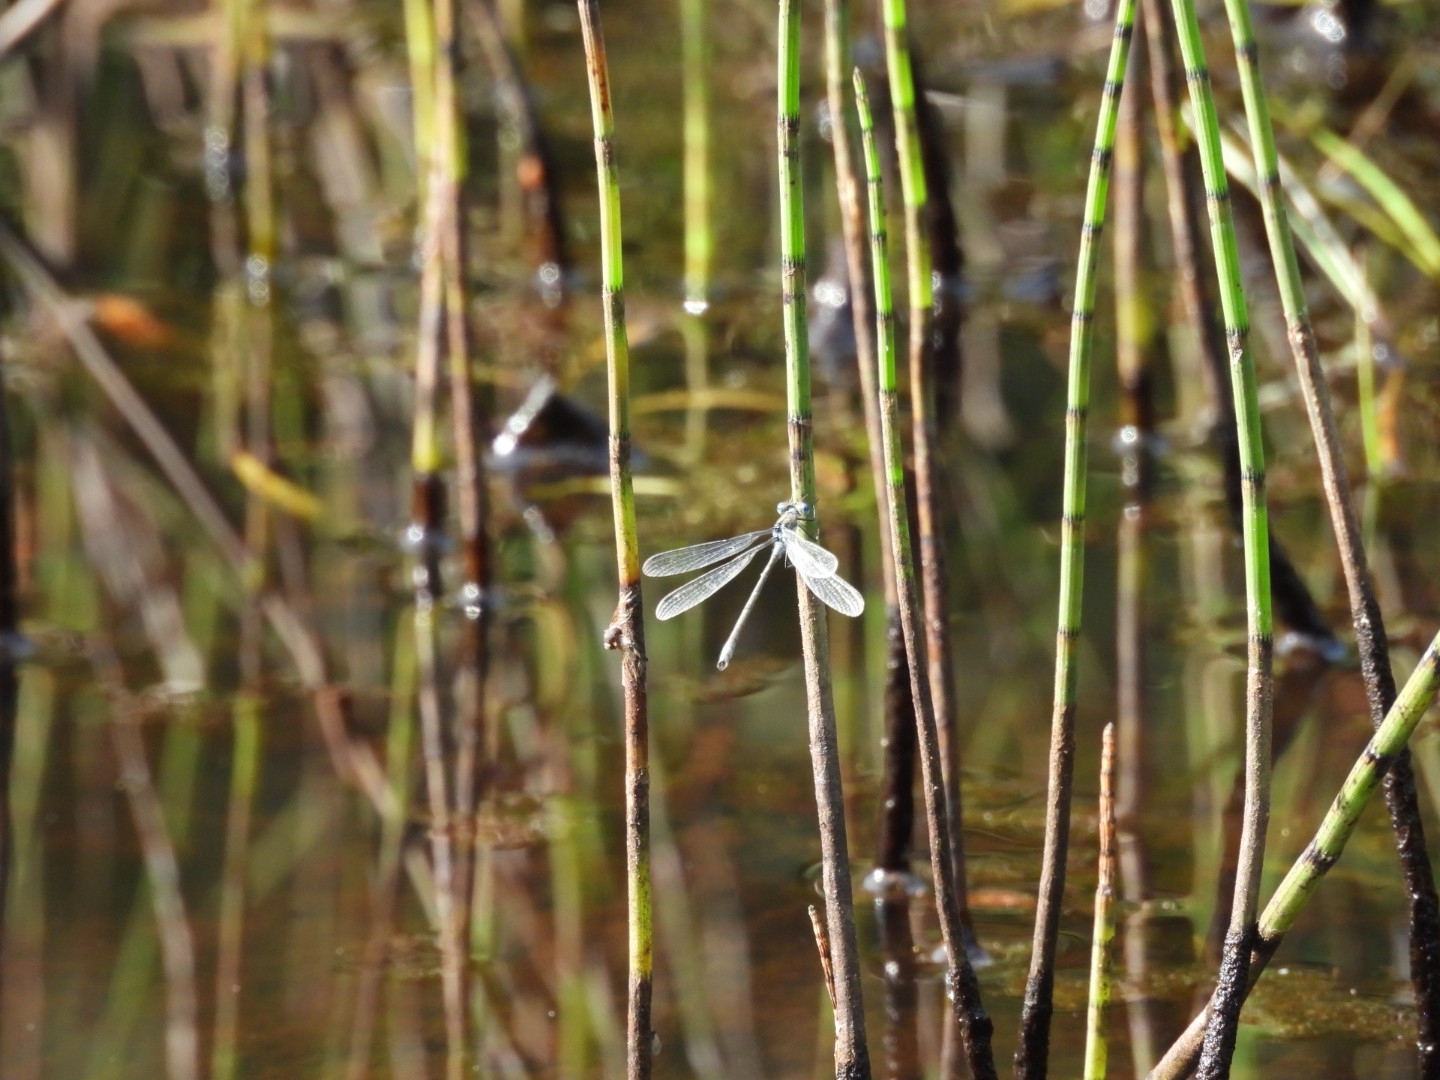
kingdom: Animalia
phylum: Arthropoda
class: Insecta
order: Odonata
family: Lestidae
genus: Lestes
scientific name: Lestes sponsa
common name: Common spreadwing
